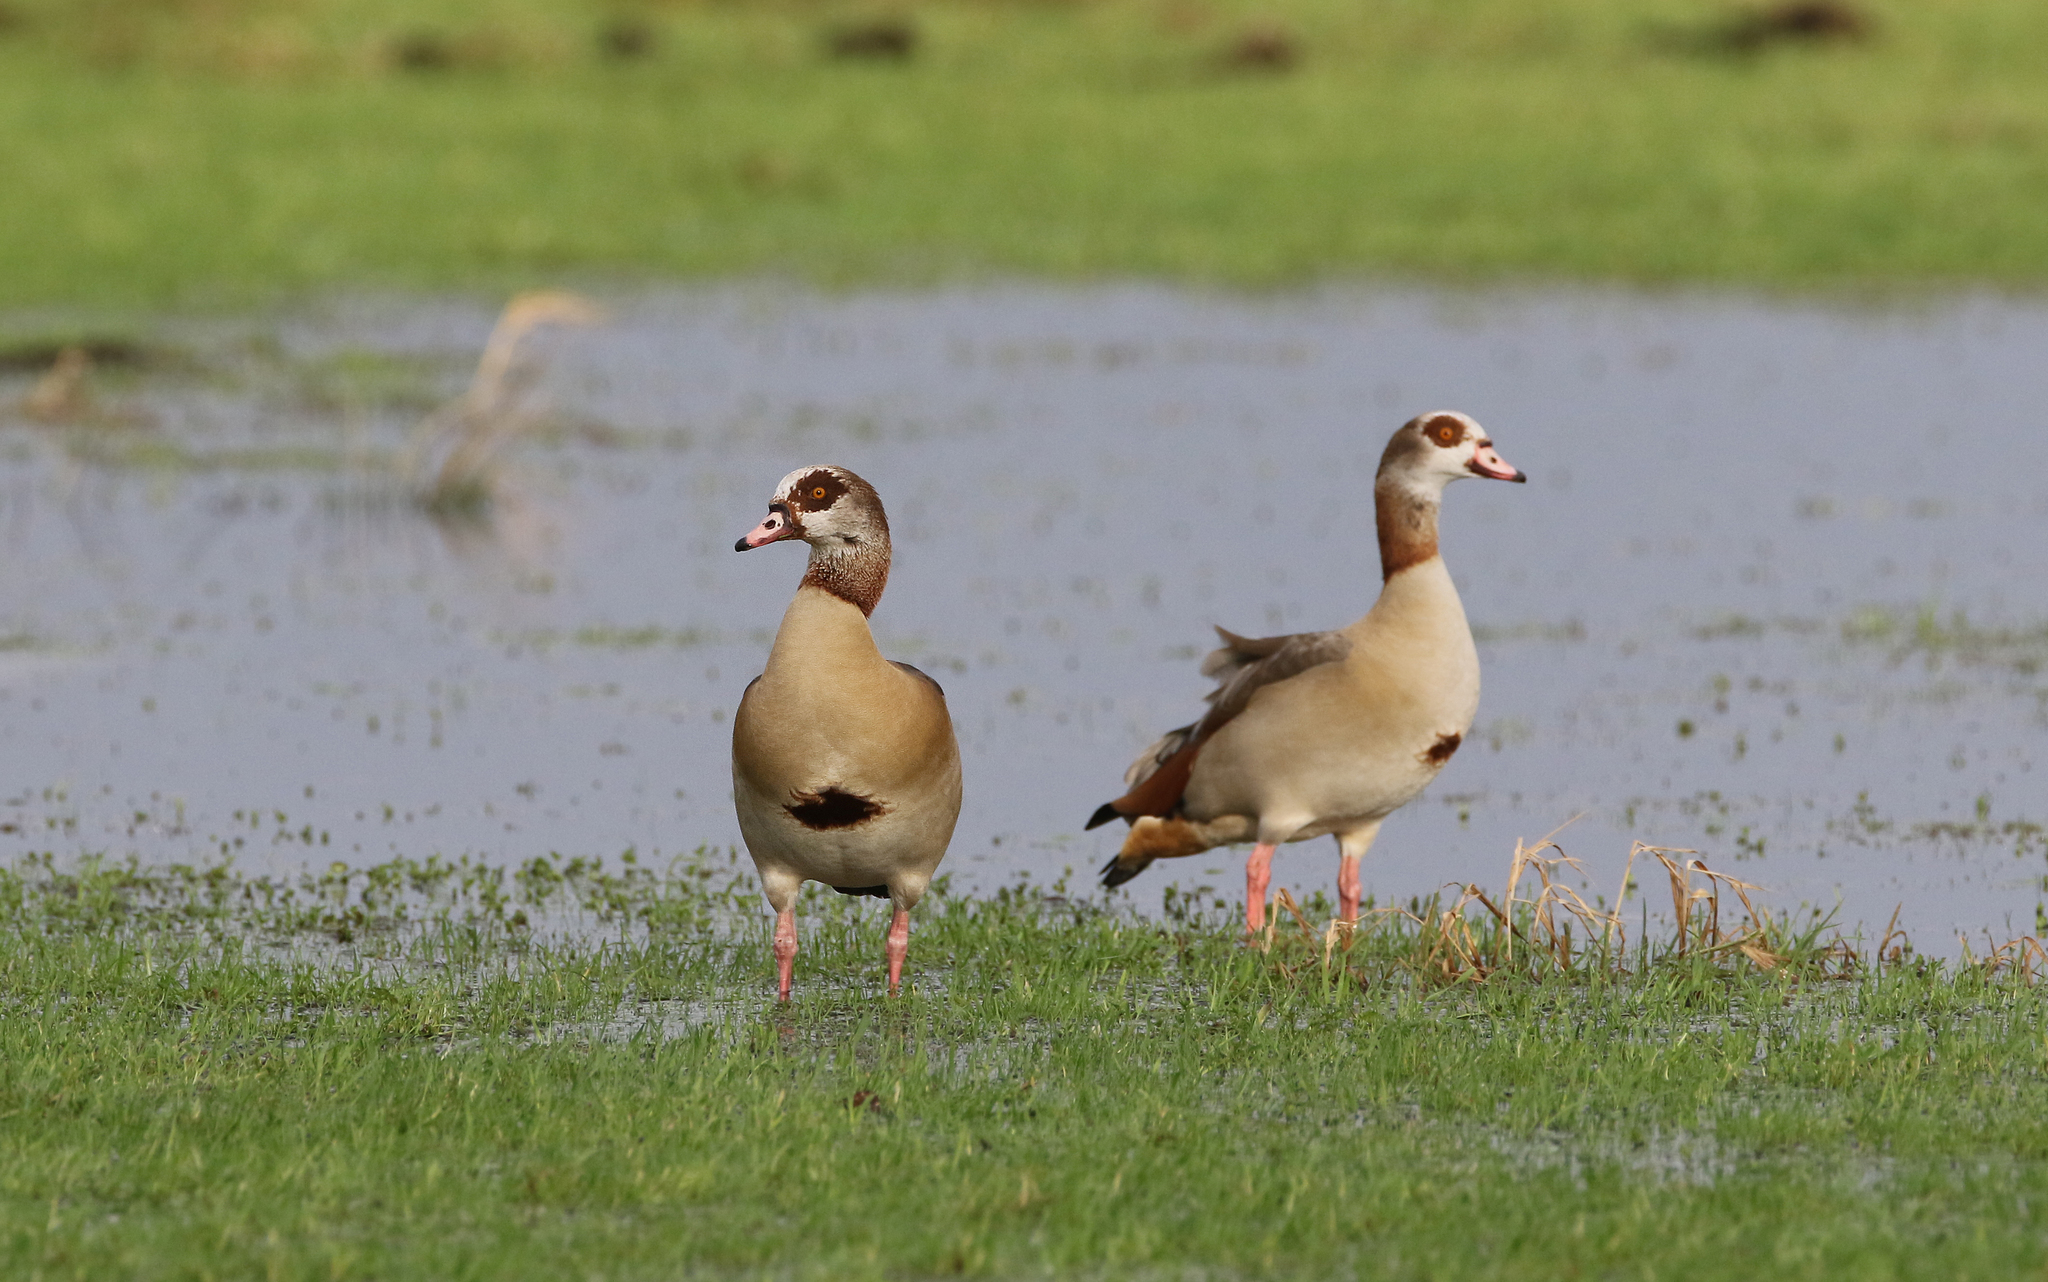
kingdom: Animalia
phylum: Chordata
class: Aves
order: Anseriformes
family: Anatidae
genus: Alopochen
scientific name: Alopochen aegyptiaca
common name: Egyptian goose
